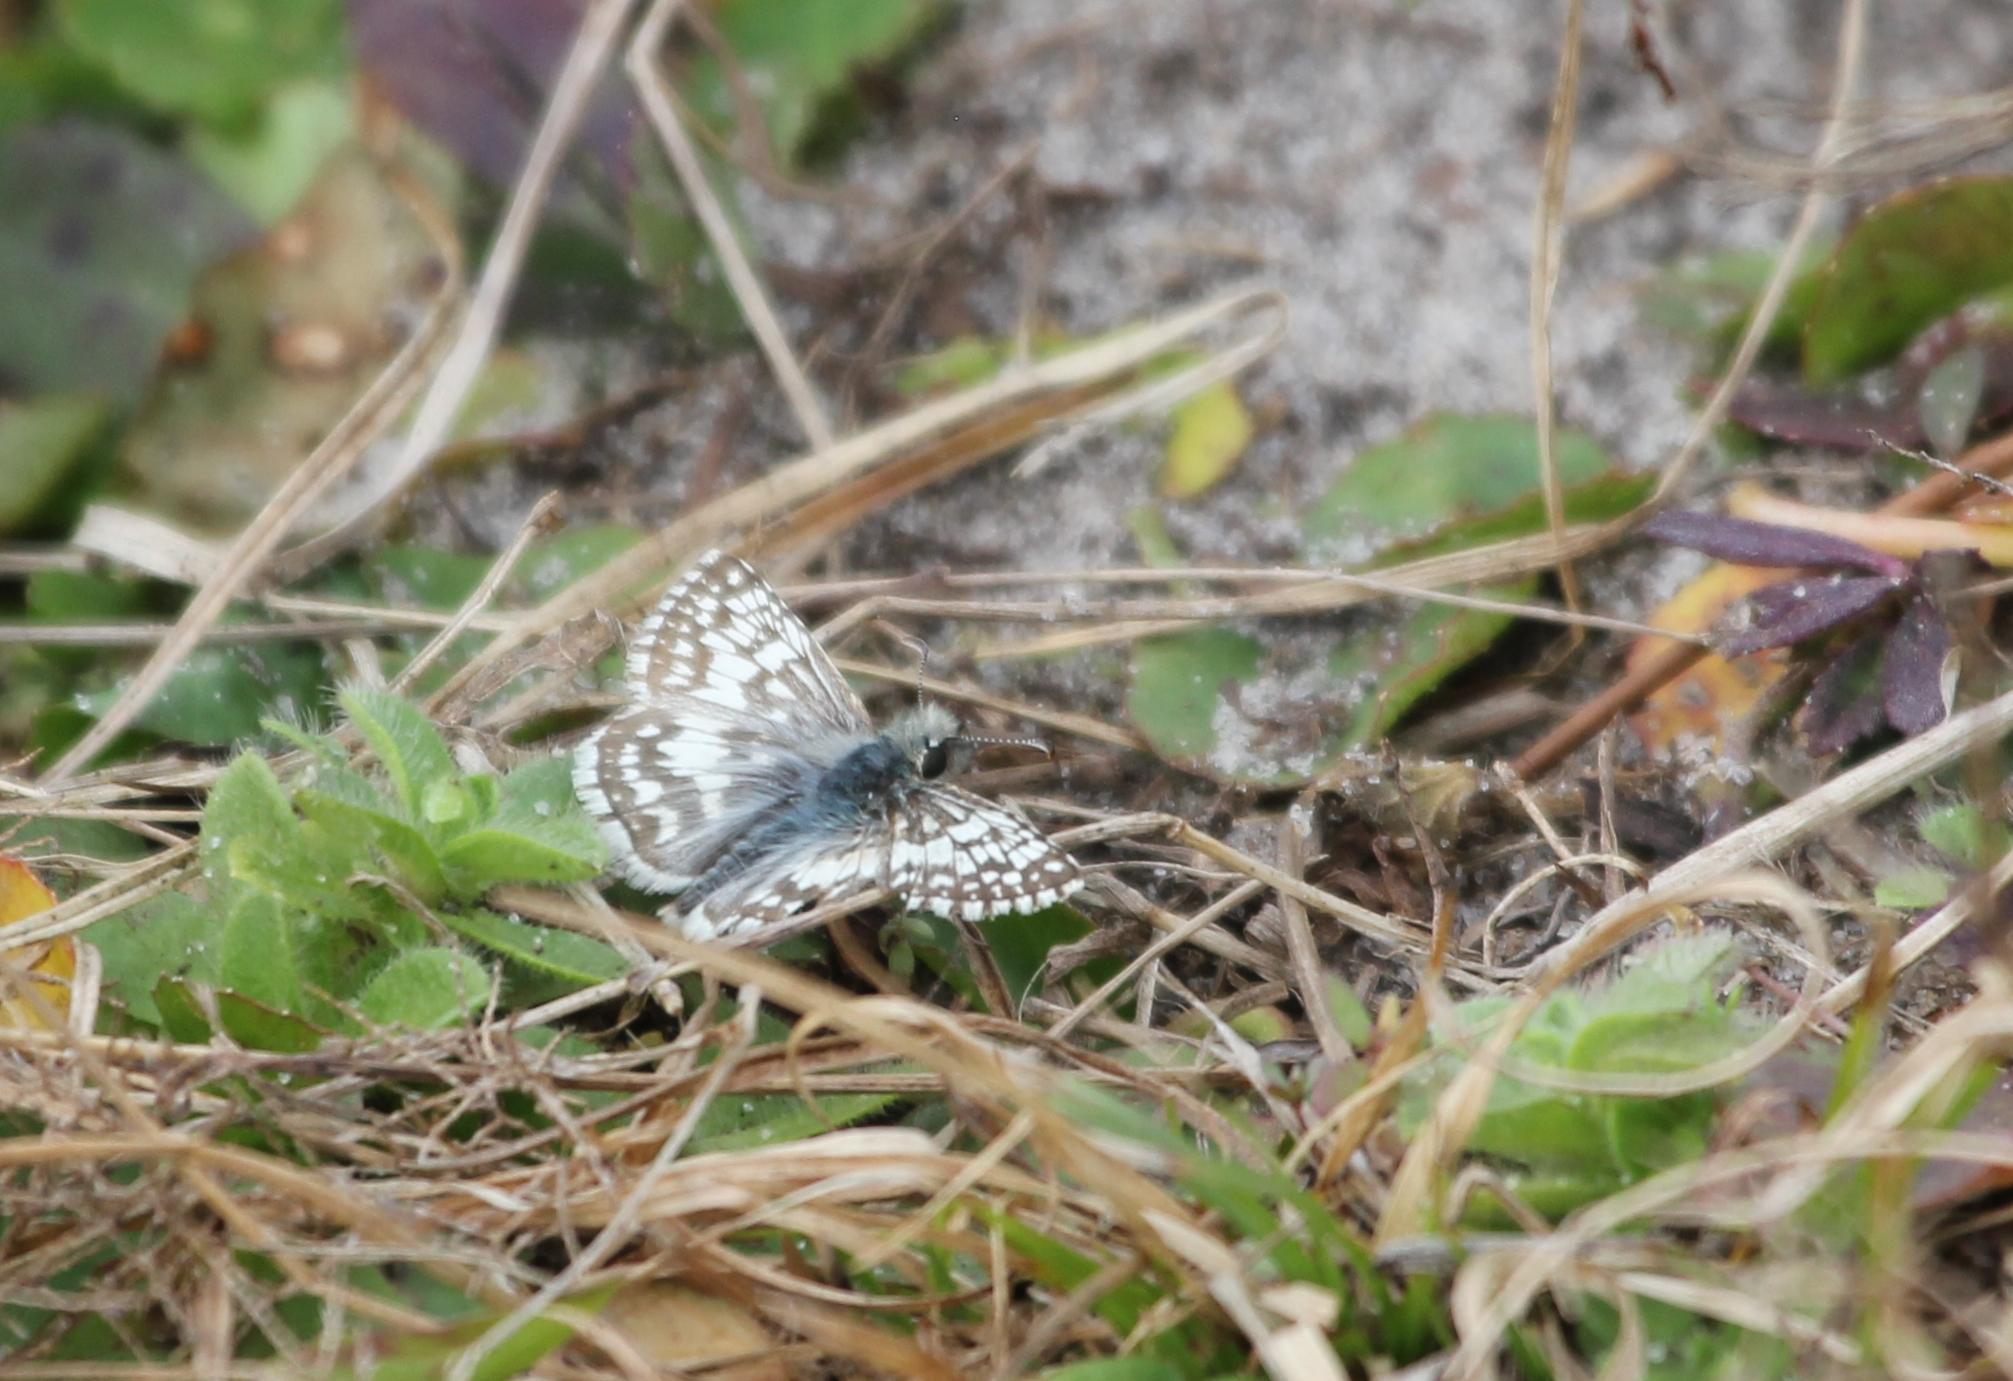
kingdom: Animalia
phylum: Arthropoda
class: Insecta
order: Lepidoptera
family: Hesperiidae
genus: Burnsius
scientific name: Burnsius albezens
